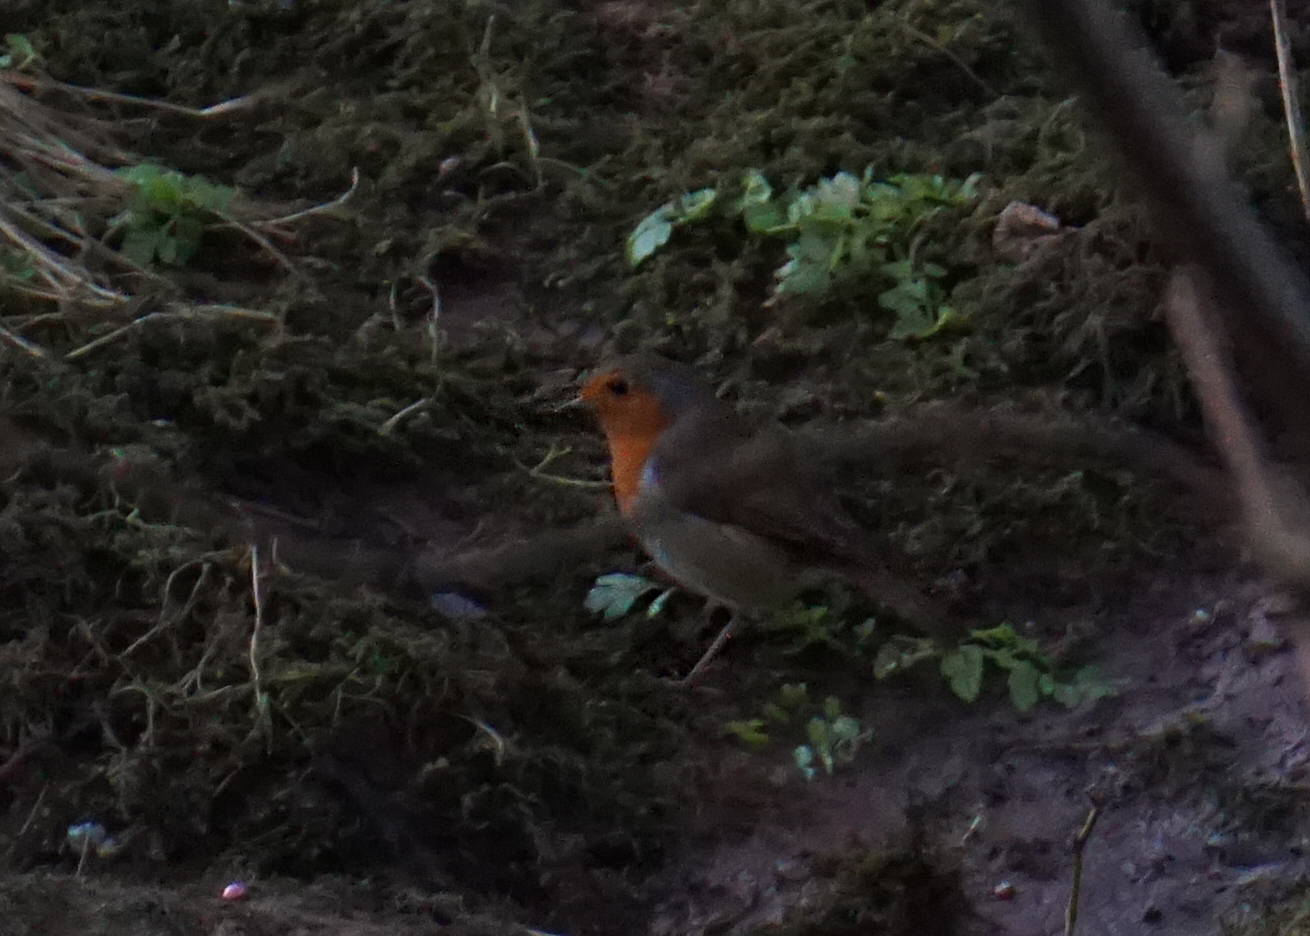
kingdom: Animalia
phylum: Chordata
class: Aves
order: Passeriformes
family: Muscicapidae
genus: Erithacus
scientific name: Erithacus rubecula
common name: European robin
